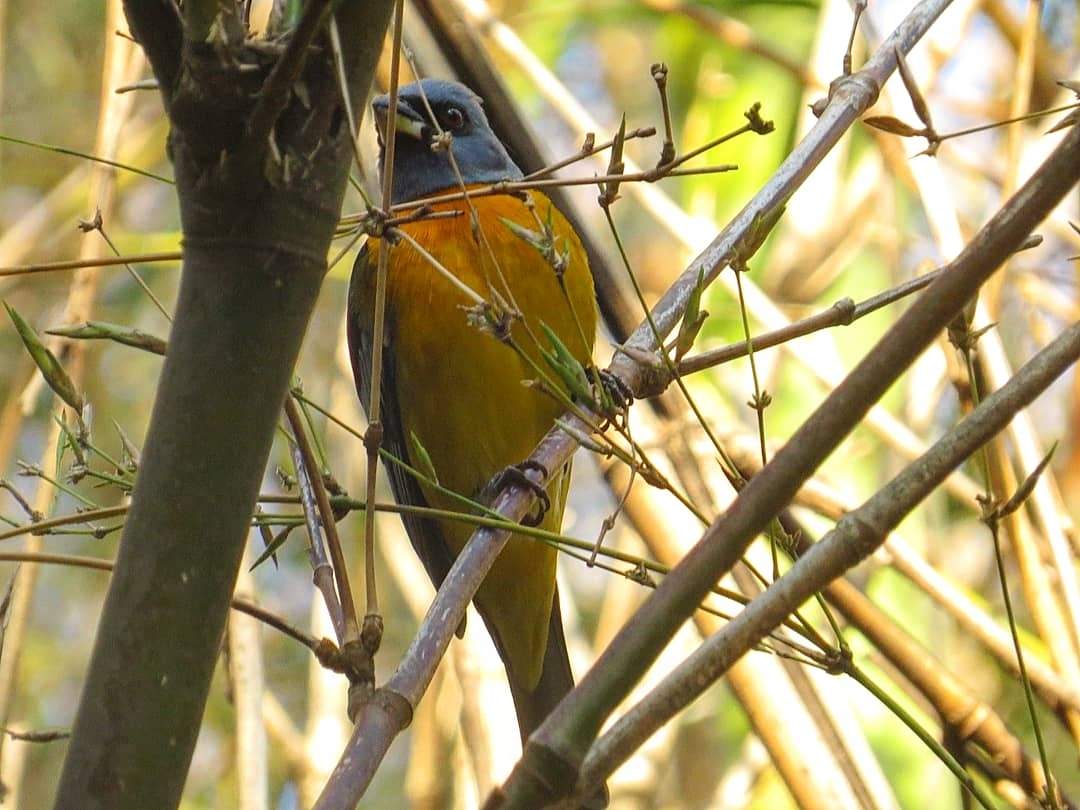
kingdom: Animalia
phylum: Chordata
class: Aves
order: Passeriformes
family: Thraupidae
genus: Rauenia
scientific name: Rauenia bonariensis
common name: Blue-and-yellow tanager
